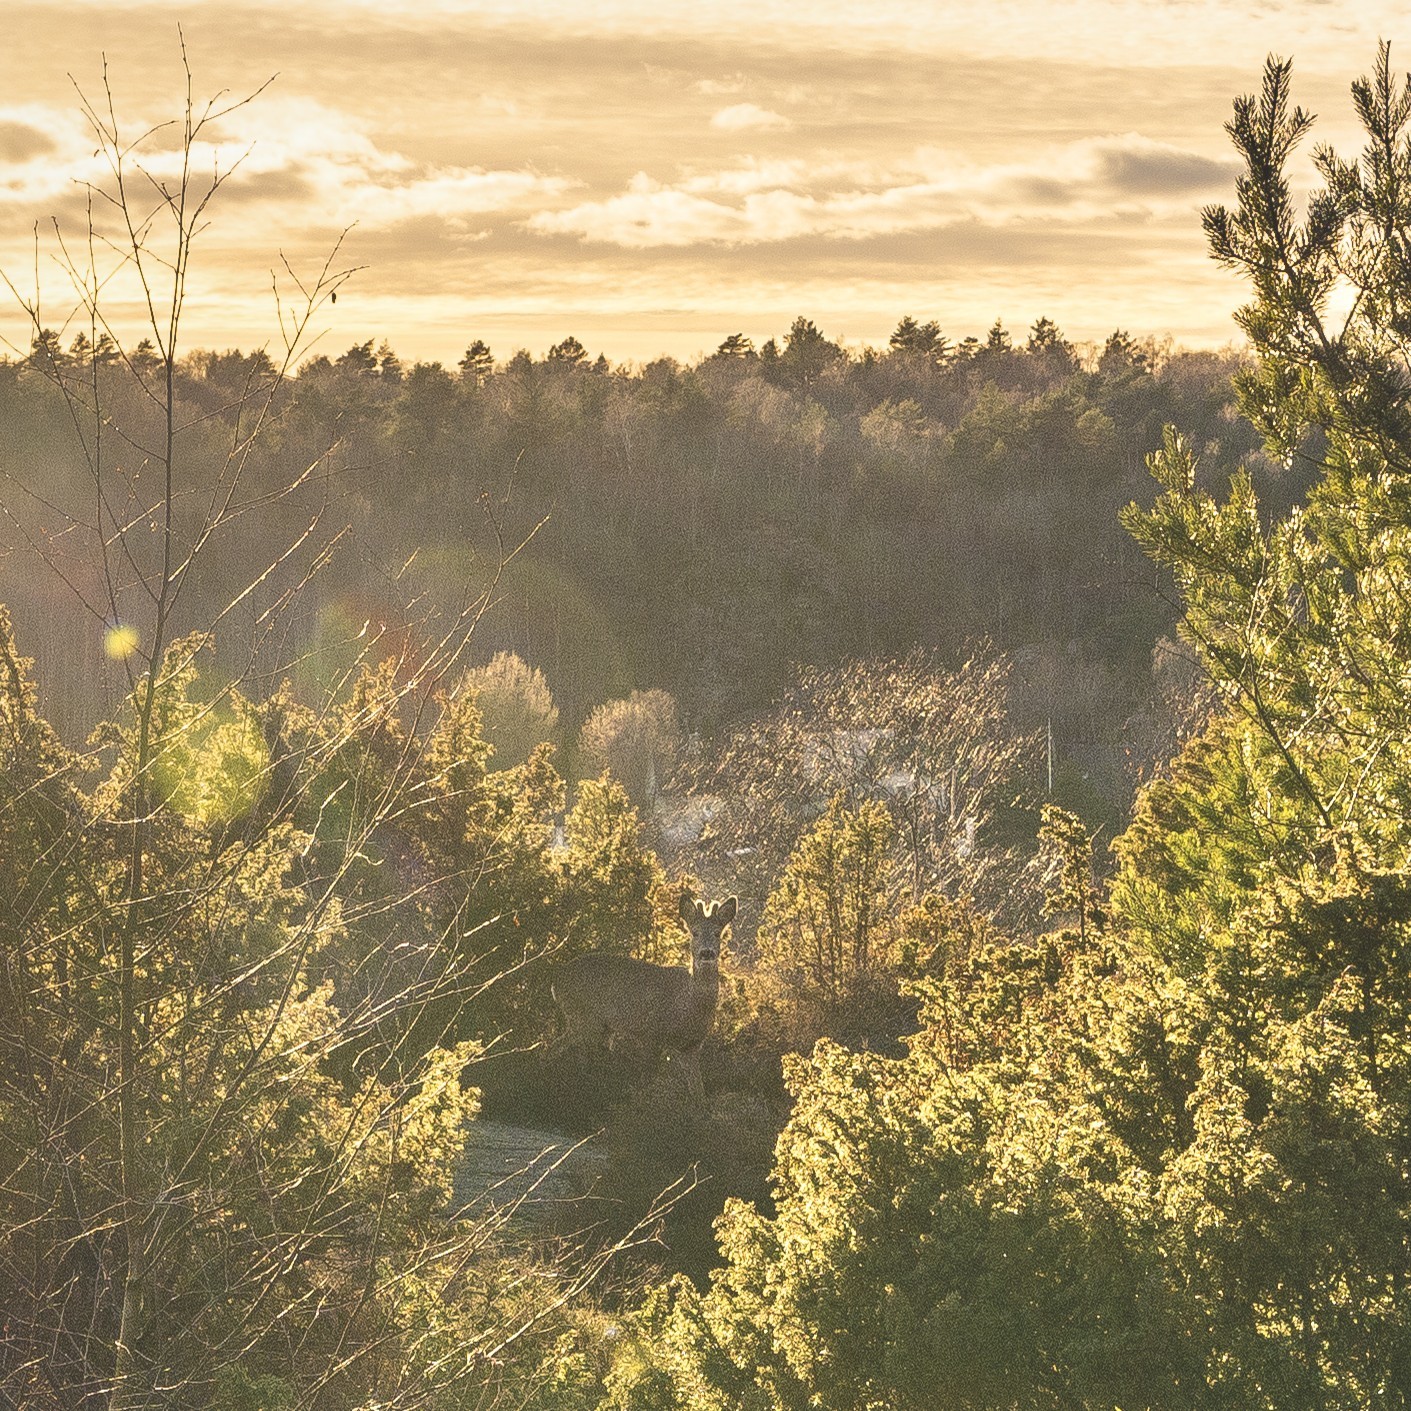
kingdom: Animalia
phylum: Chordata
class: Mammalia
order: Artiodactyla
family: Cervidae
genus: Capreolus
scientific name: Capreolus capreolus
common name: Western roe deer
